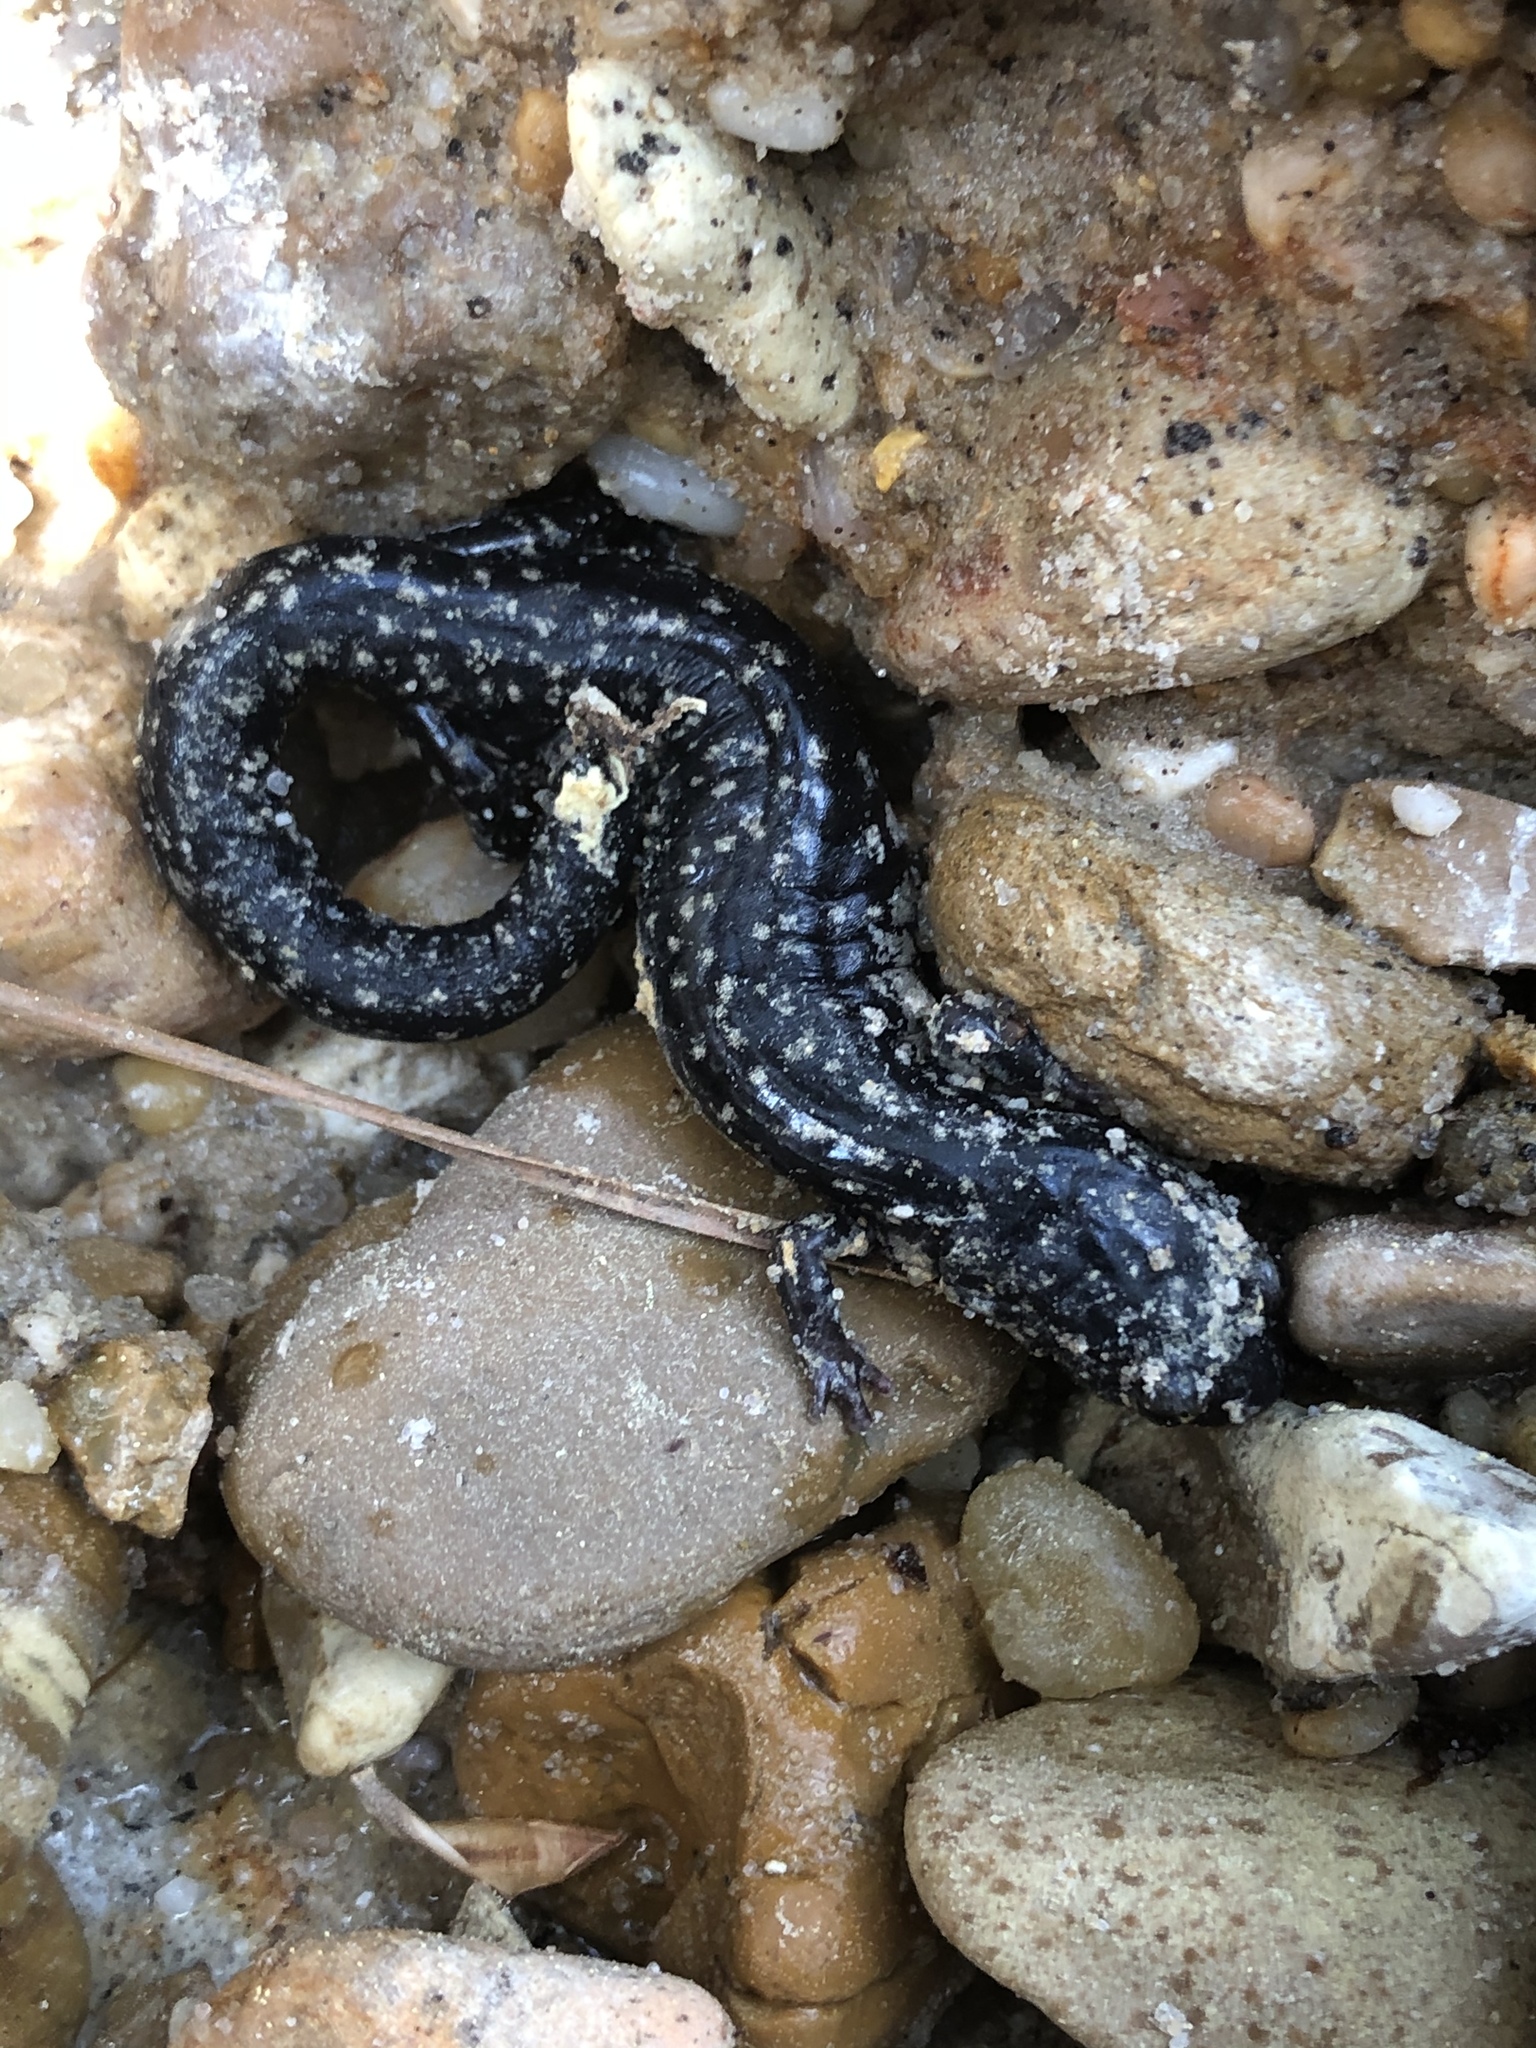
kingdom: Animalia
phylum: Chordata
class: Amphibia
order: Caudata
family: Plethodontidae
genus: Plethodon
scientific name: Plethodon mississippi
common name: Mississippi slimy salamander
